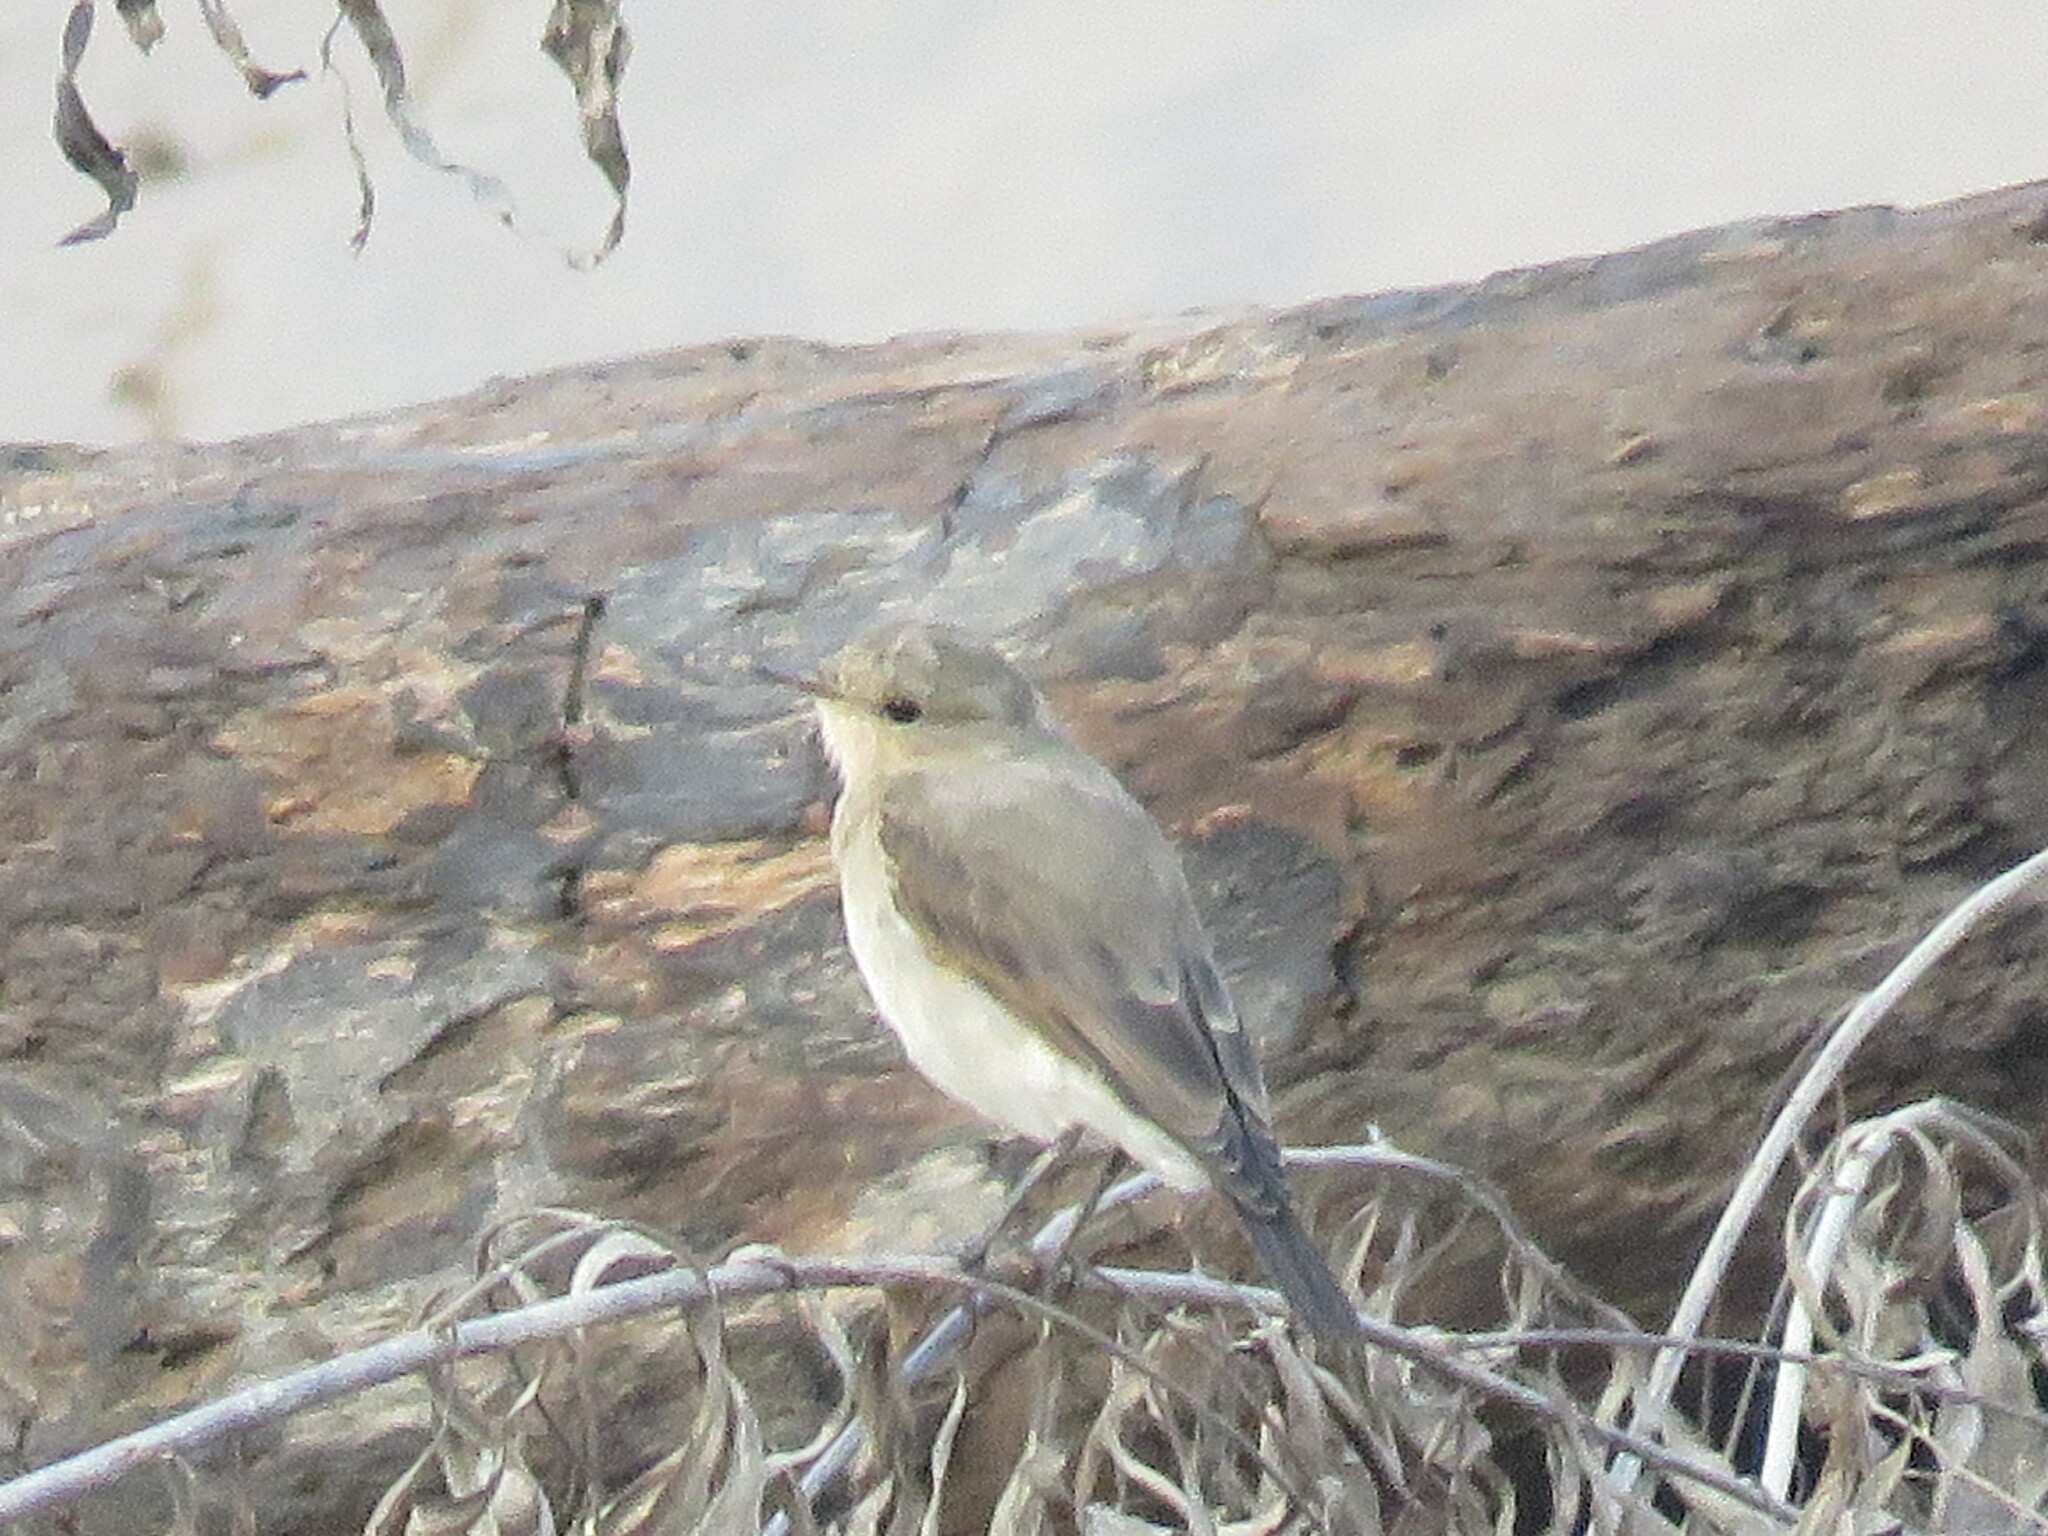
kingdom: Animalia
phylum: Chordata
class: Aves
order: Passeriformes
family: Tyrannidae
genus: Muscisaxicola
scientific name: Muscisaxicola fluviatilis
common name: Little ground tyrant
